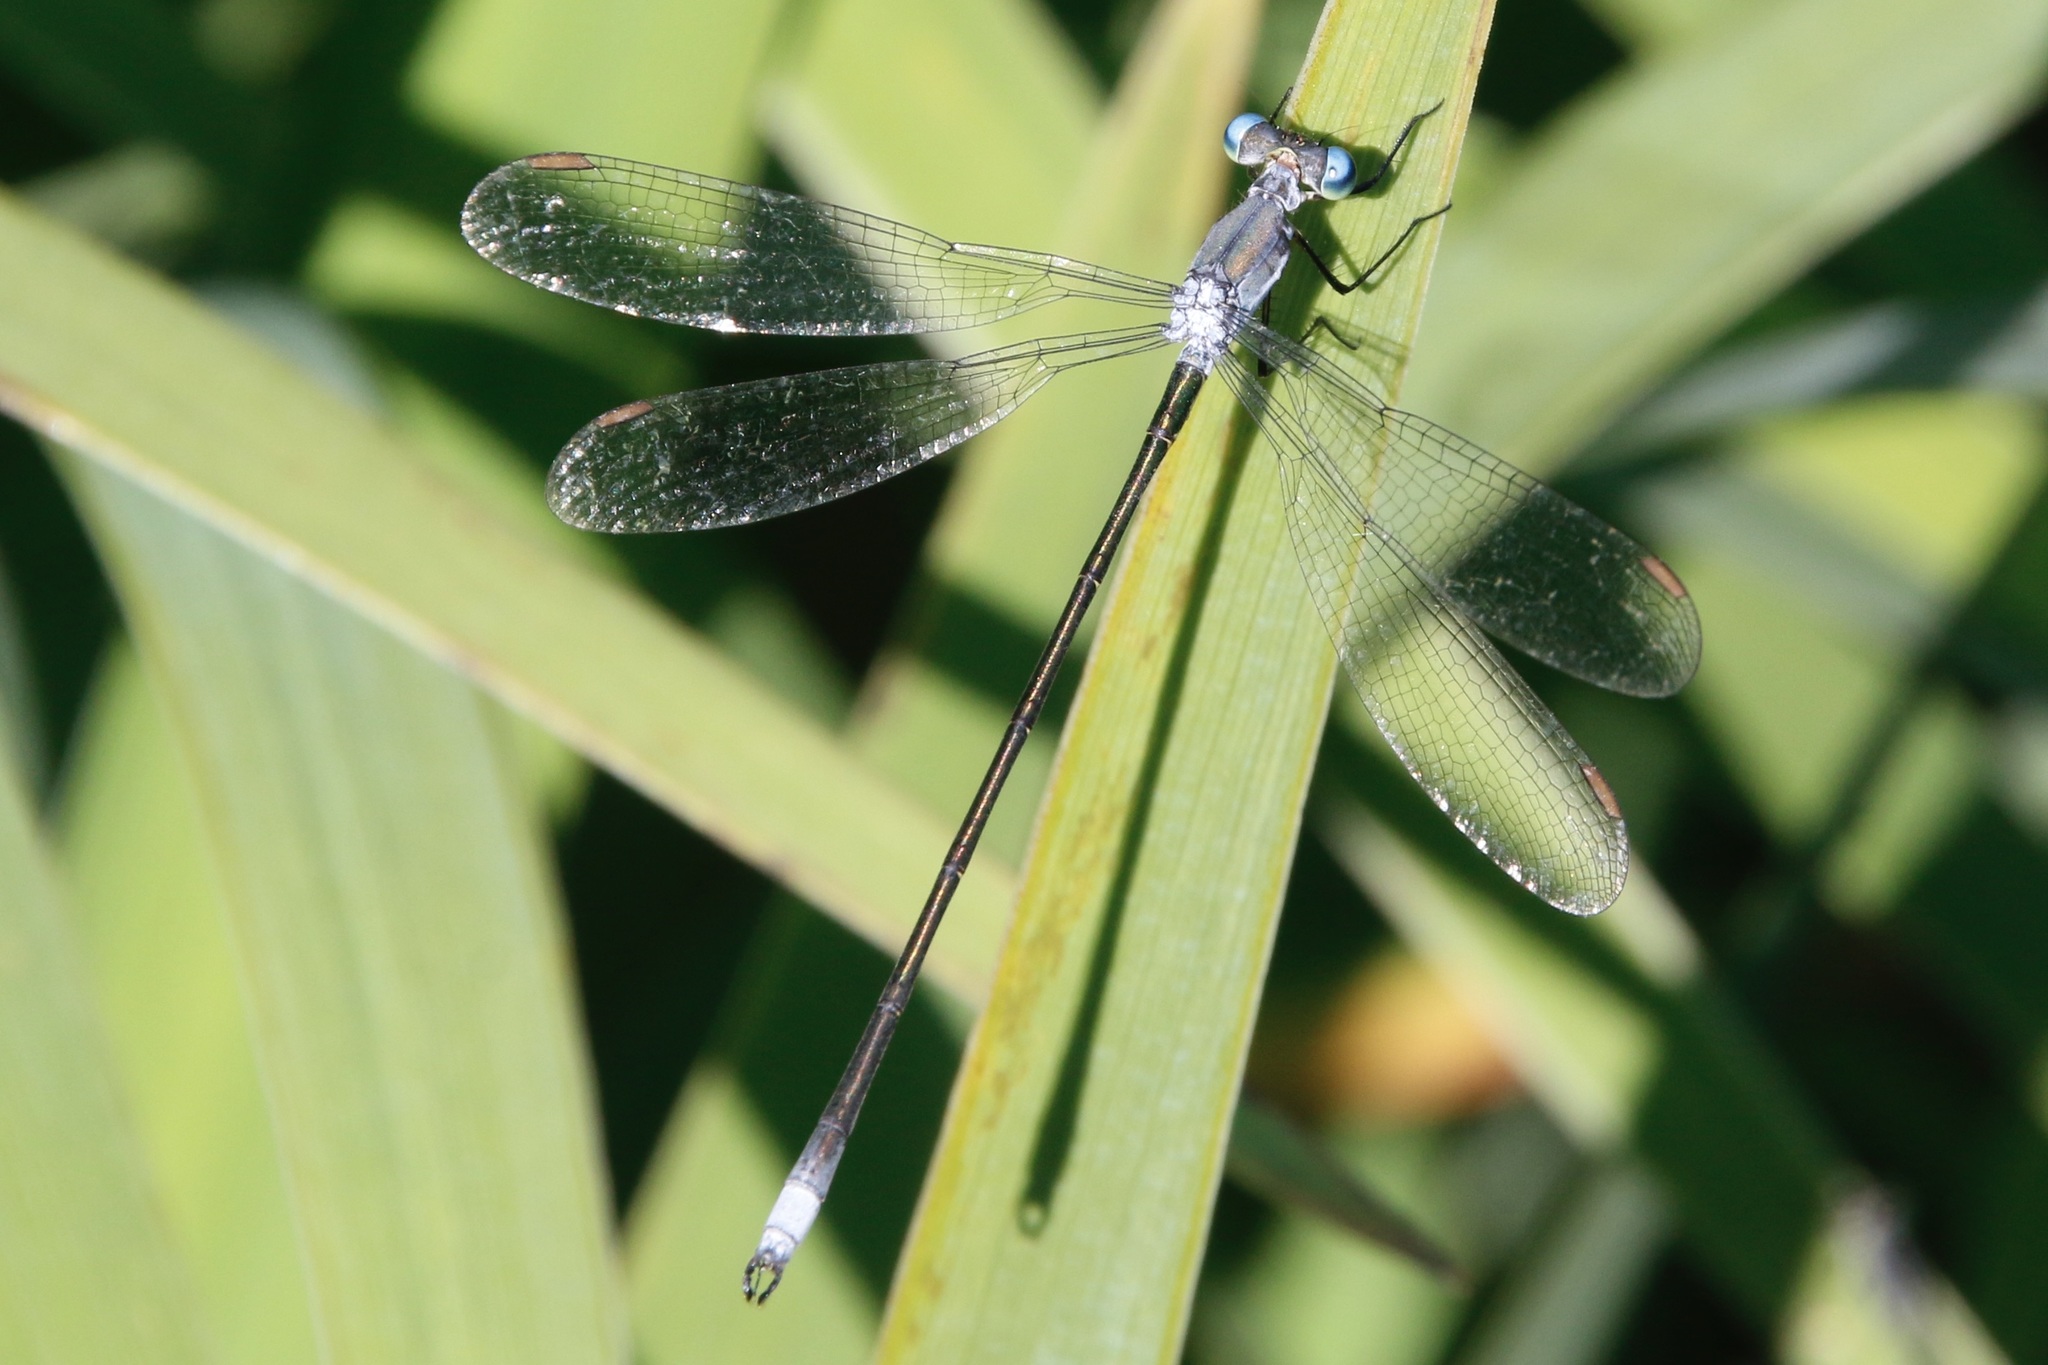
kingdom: Animalia
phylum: Arthropoda
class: Insecta
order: Odonata
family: Lestidae
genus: Lestes
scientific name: Lestes vigilax
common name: Swamp spreadwing
